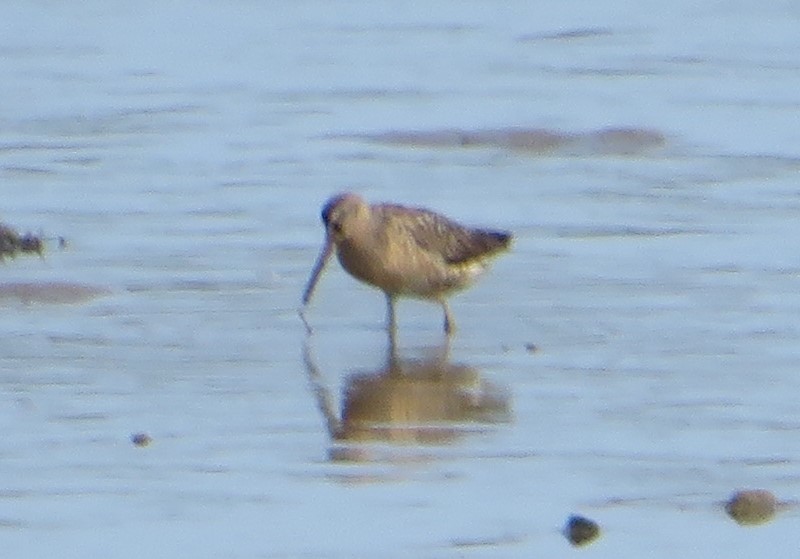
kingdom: Animalia
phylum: Chordata
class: Aves
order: Charadriiformes
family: Scolopacidae
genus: Limnodromus
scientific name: Limnodromus griseus
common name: Short-billed dowitcher
